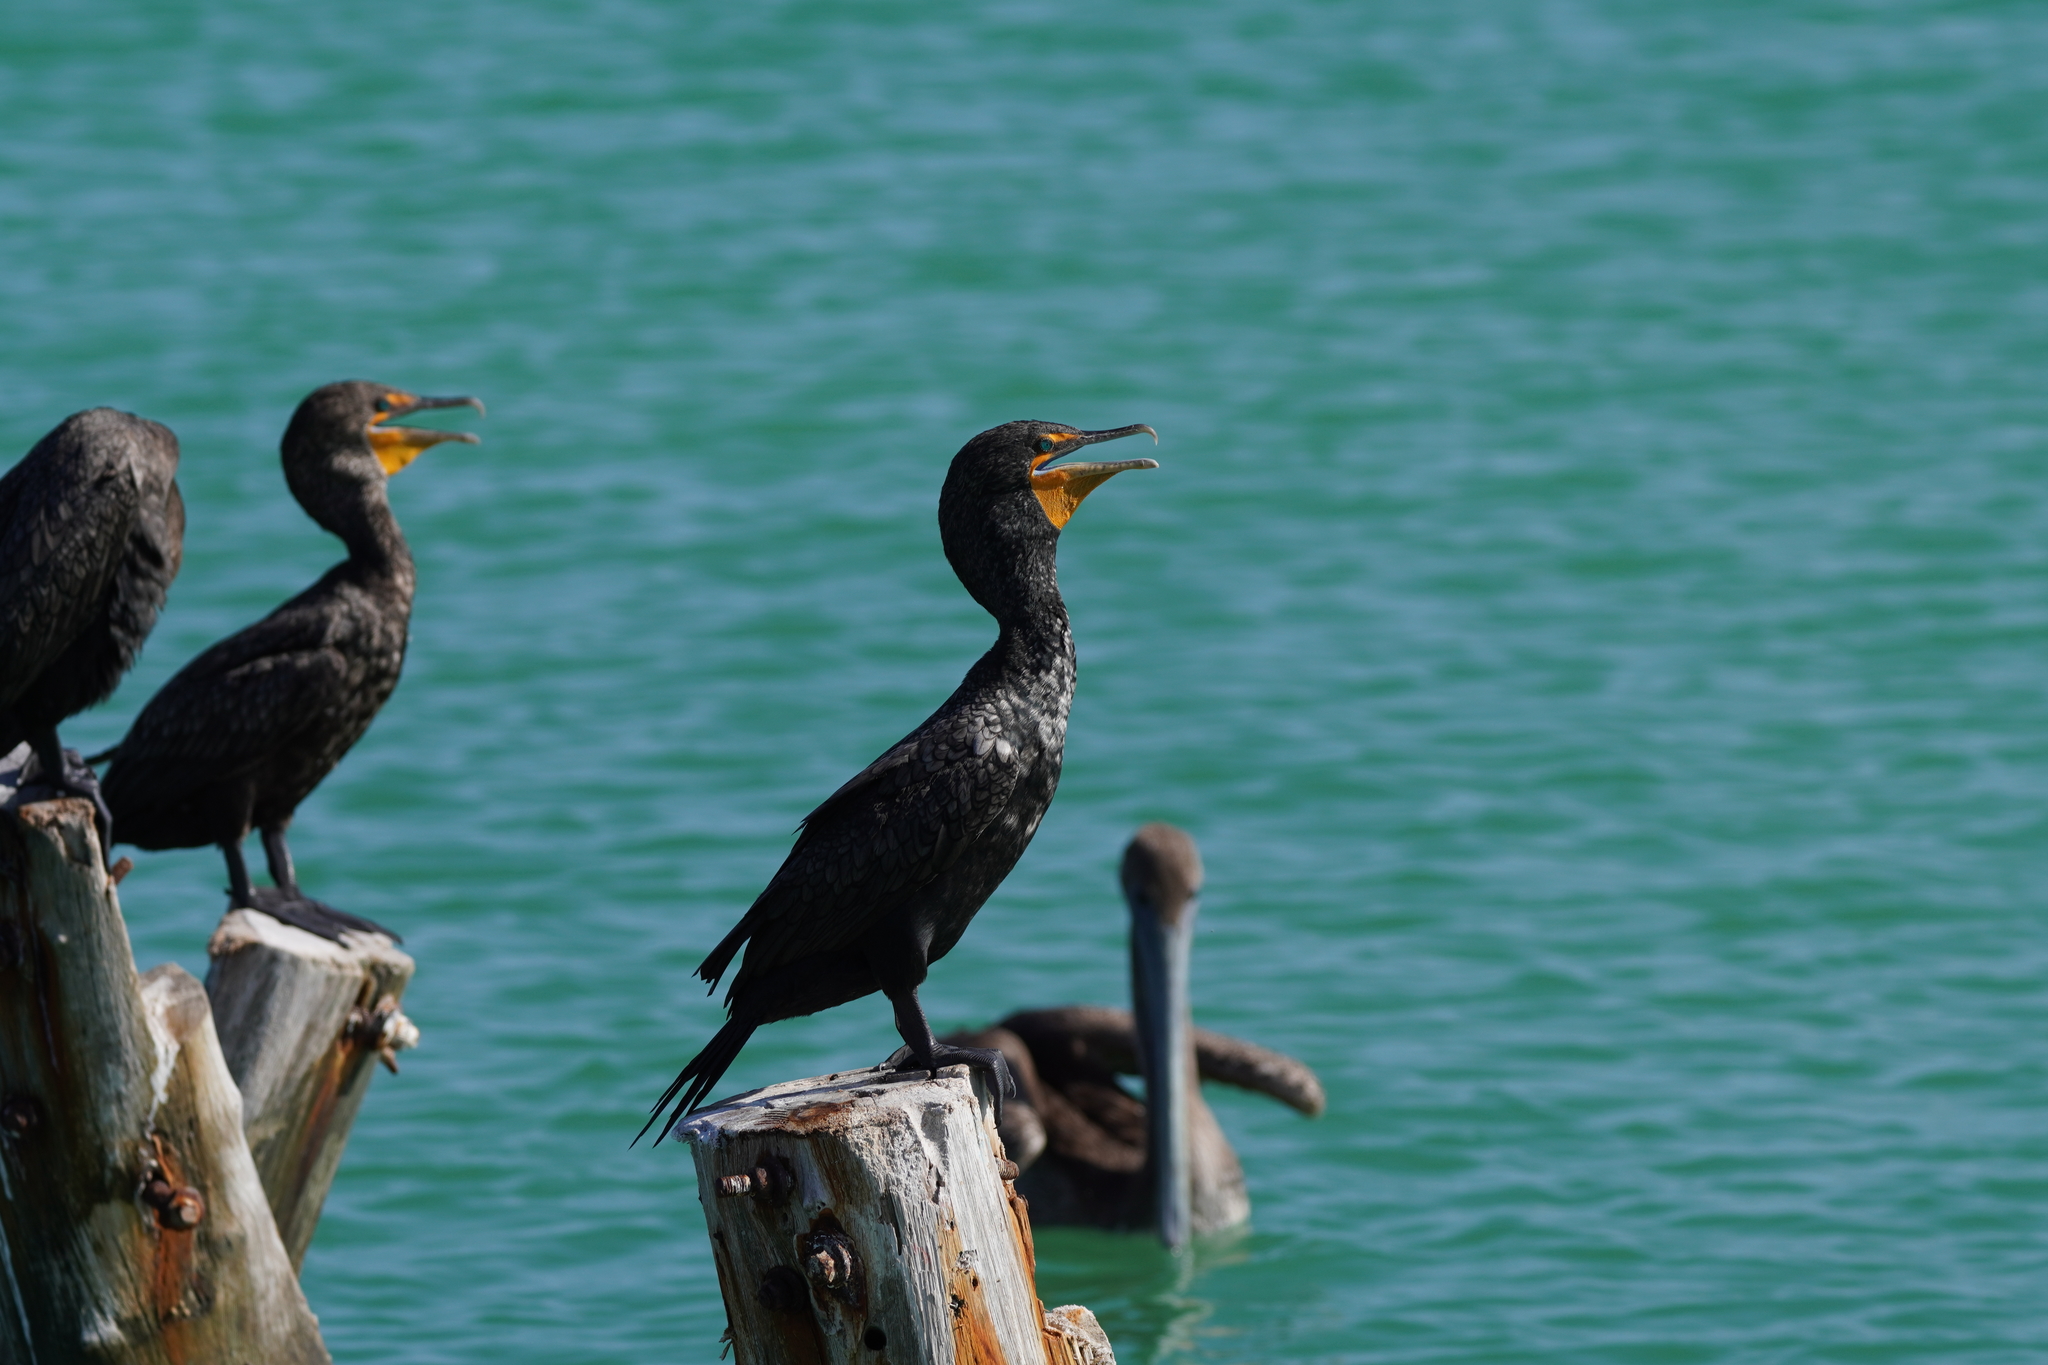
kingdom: Animalia
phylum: Chordata
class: Aves
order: Suliformes
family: Phalacrocoracidae
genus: Phalacrocorax
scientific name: Phalacrocorax auritus
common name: Double-crested cormorant
